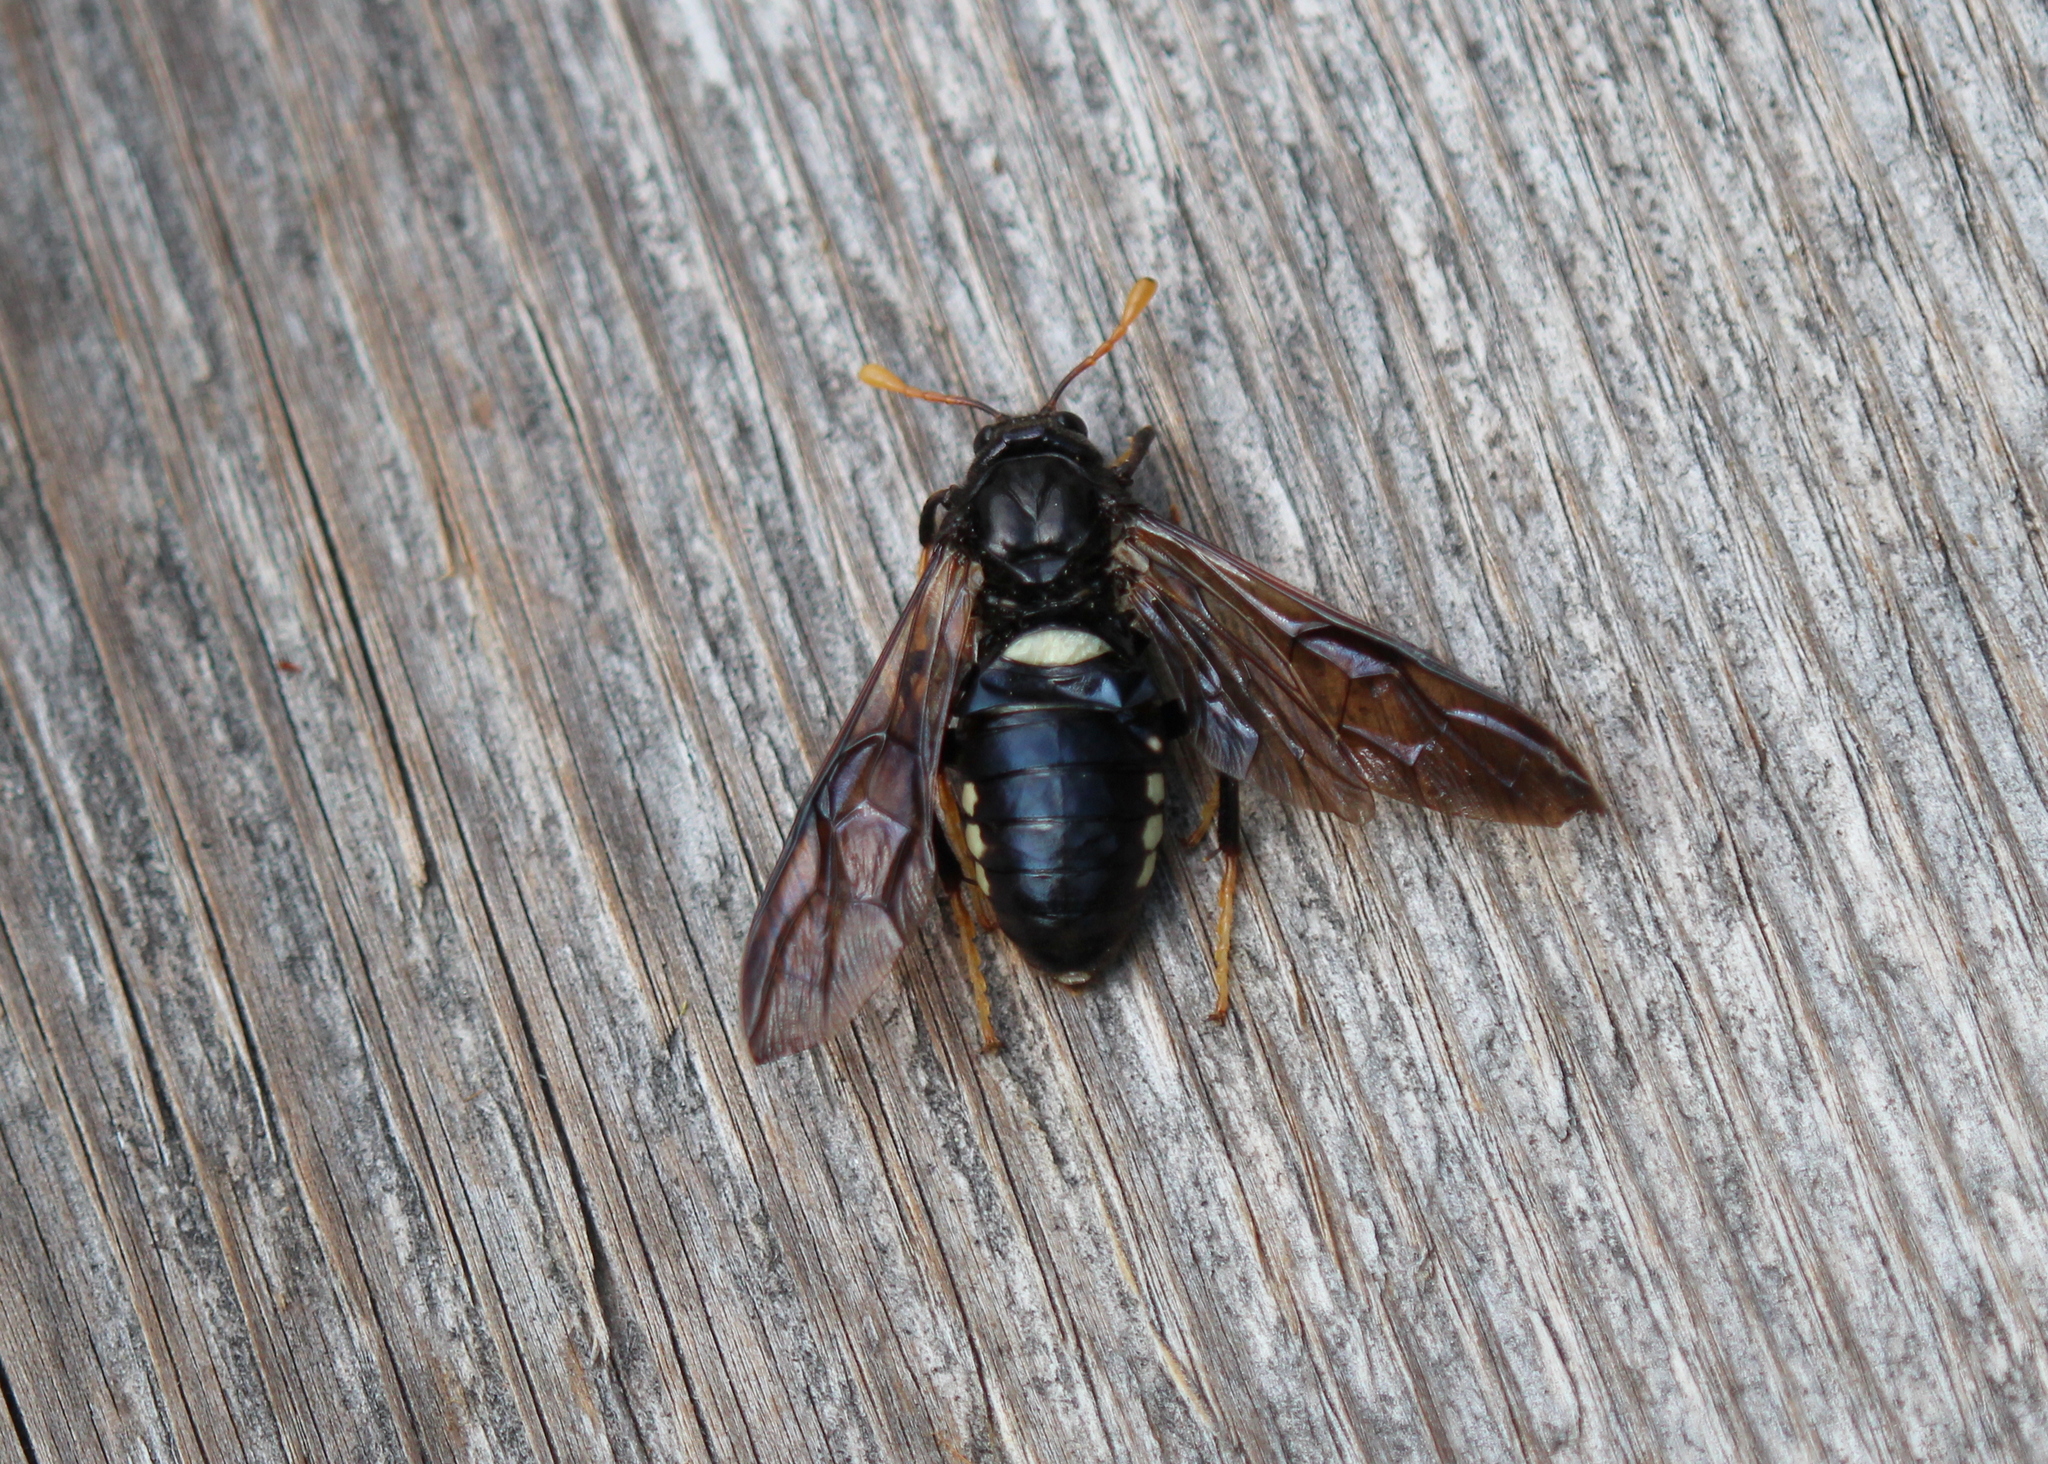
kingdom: Animalia
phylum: Arthropoda
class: Insecta
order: Hymenoptera
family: Cimbicidae
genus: Cimbex
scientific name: Cimbex americana
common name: Elm sawfly
